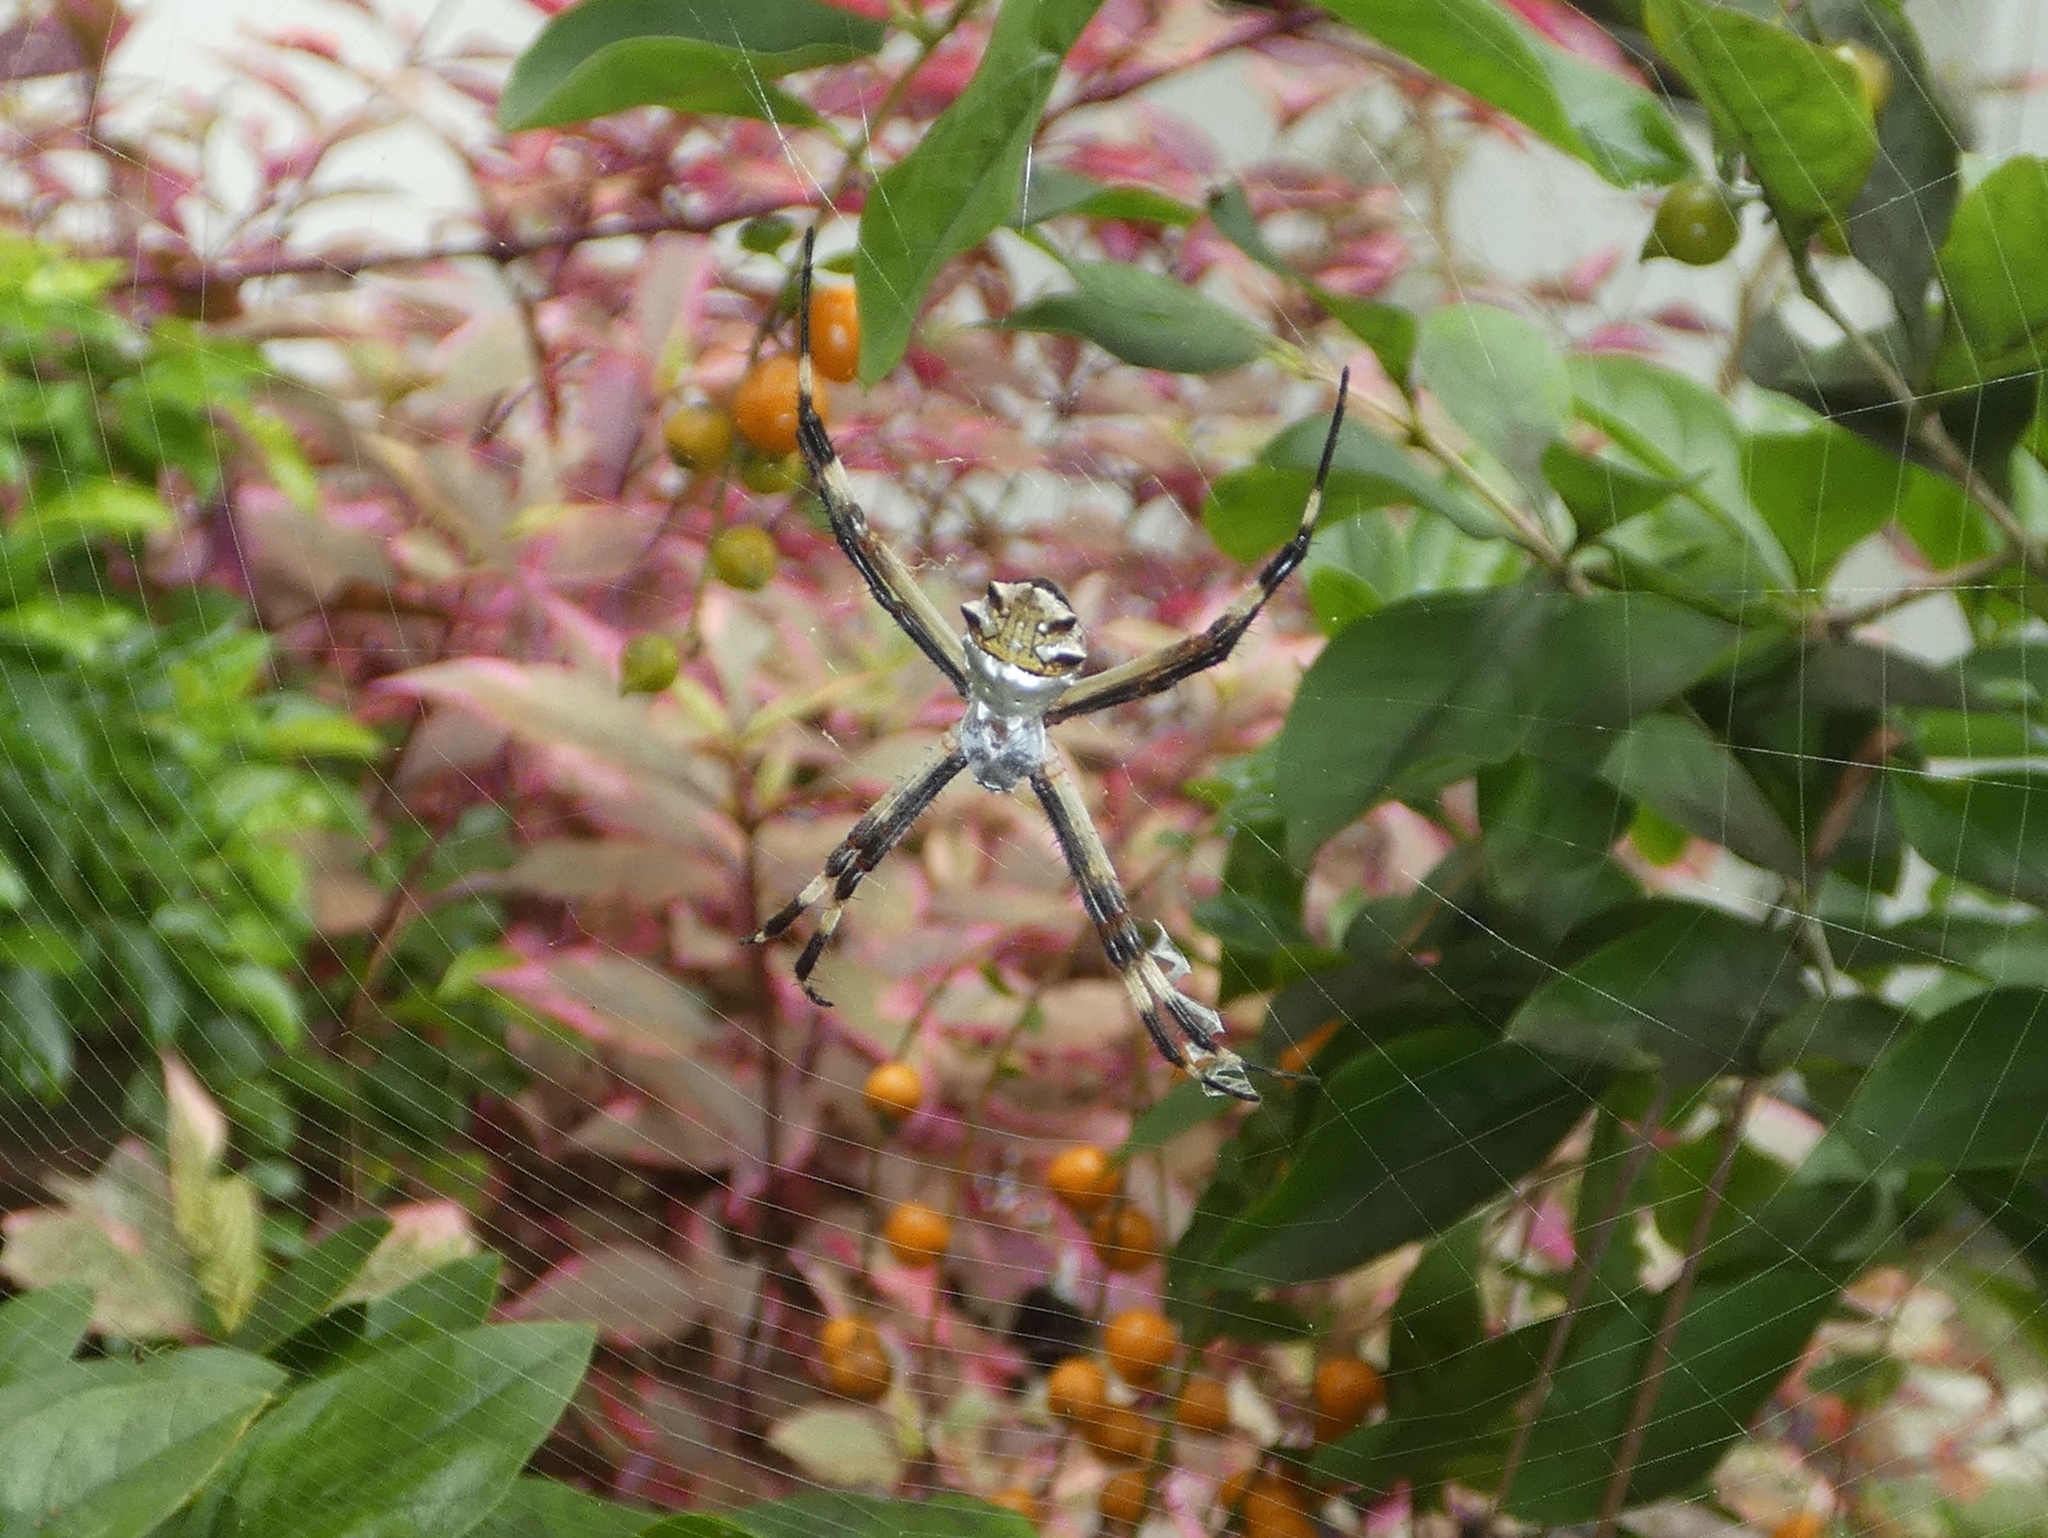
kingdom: Animalia
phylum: Arthropoda
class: Arachnida
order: Araneae
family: Araneidae
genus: Argiope
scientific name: Argiope argentata
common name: Orb weavers
